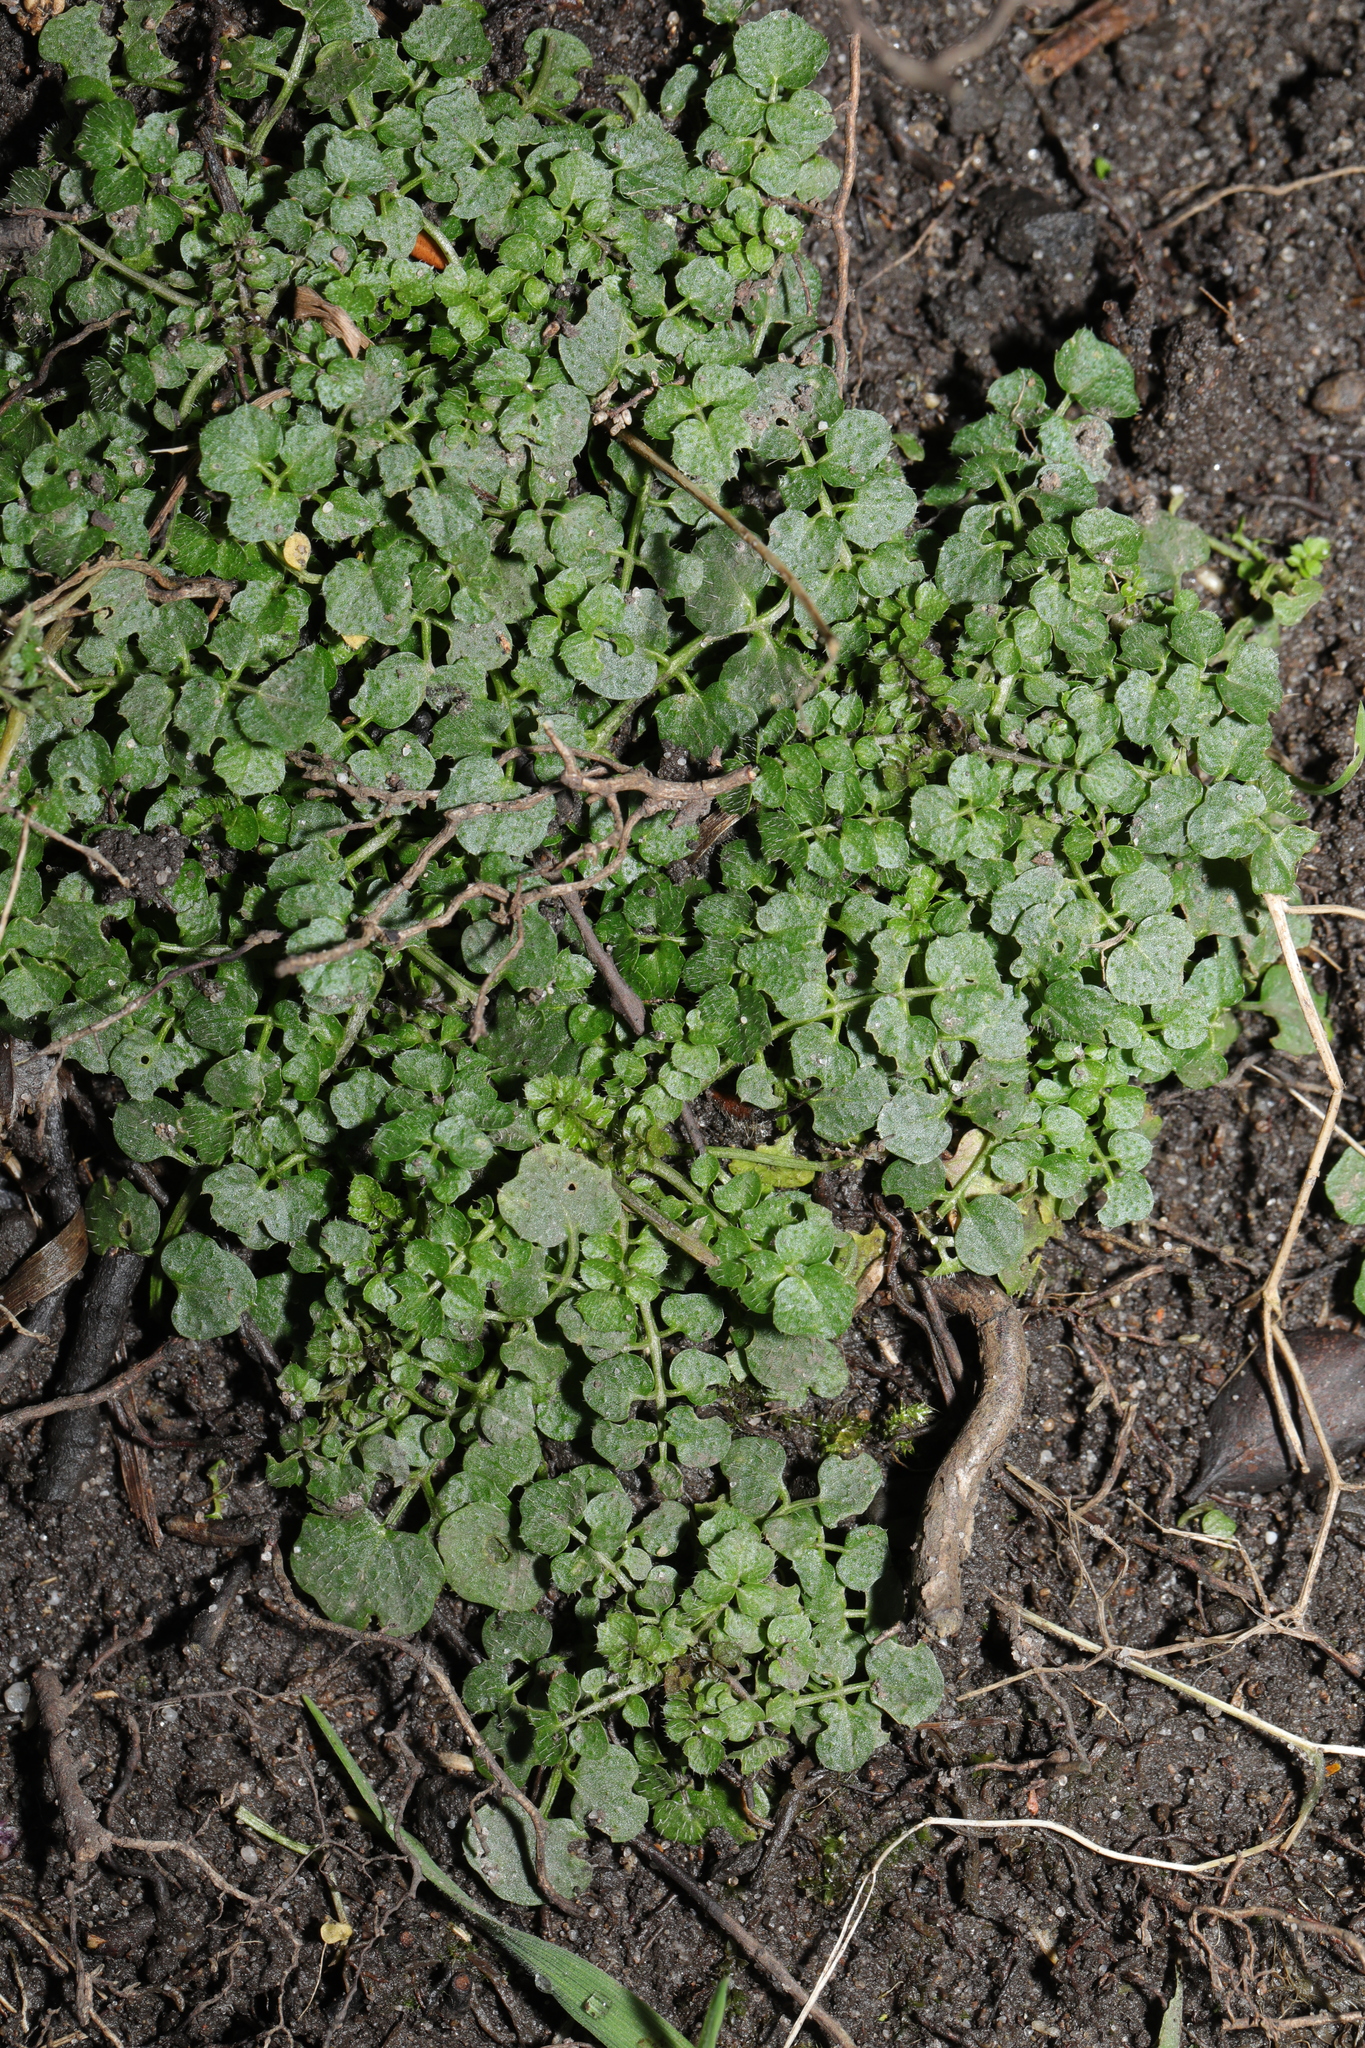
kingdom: Plantae
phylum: Tracheophyta
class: Magnoliopsida
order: Brassicales
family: Brassicaceae
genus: Cardamine
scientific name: Cardamine flexuosa
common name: Woodland bittercress
